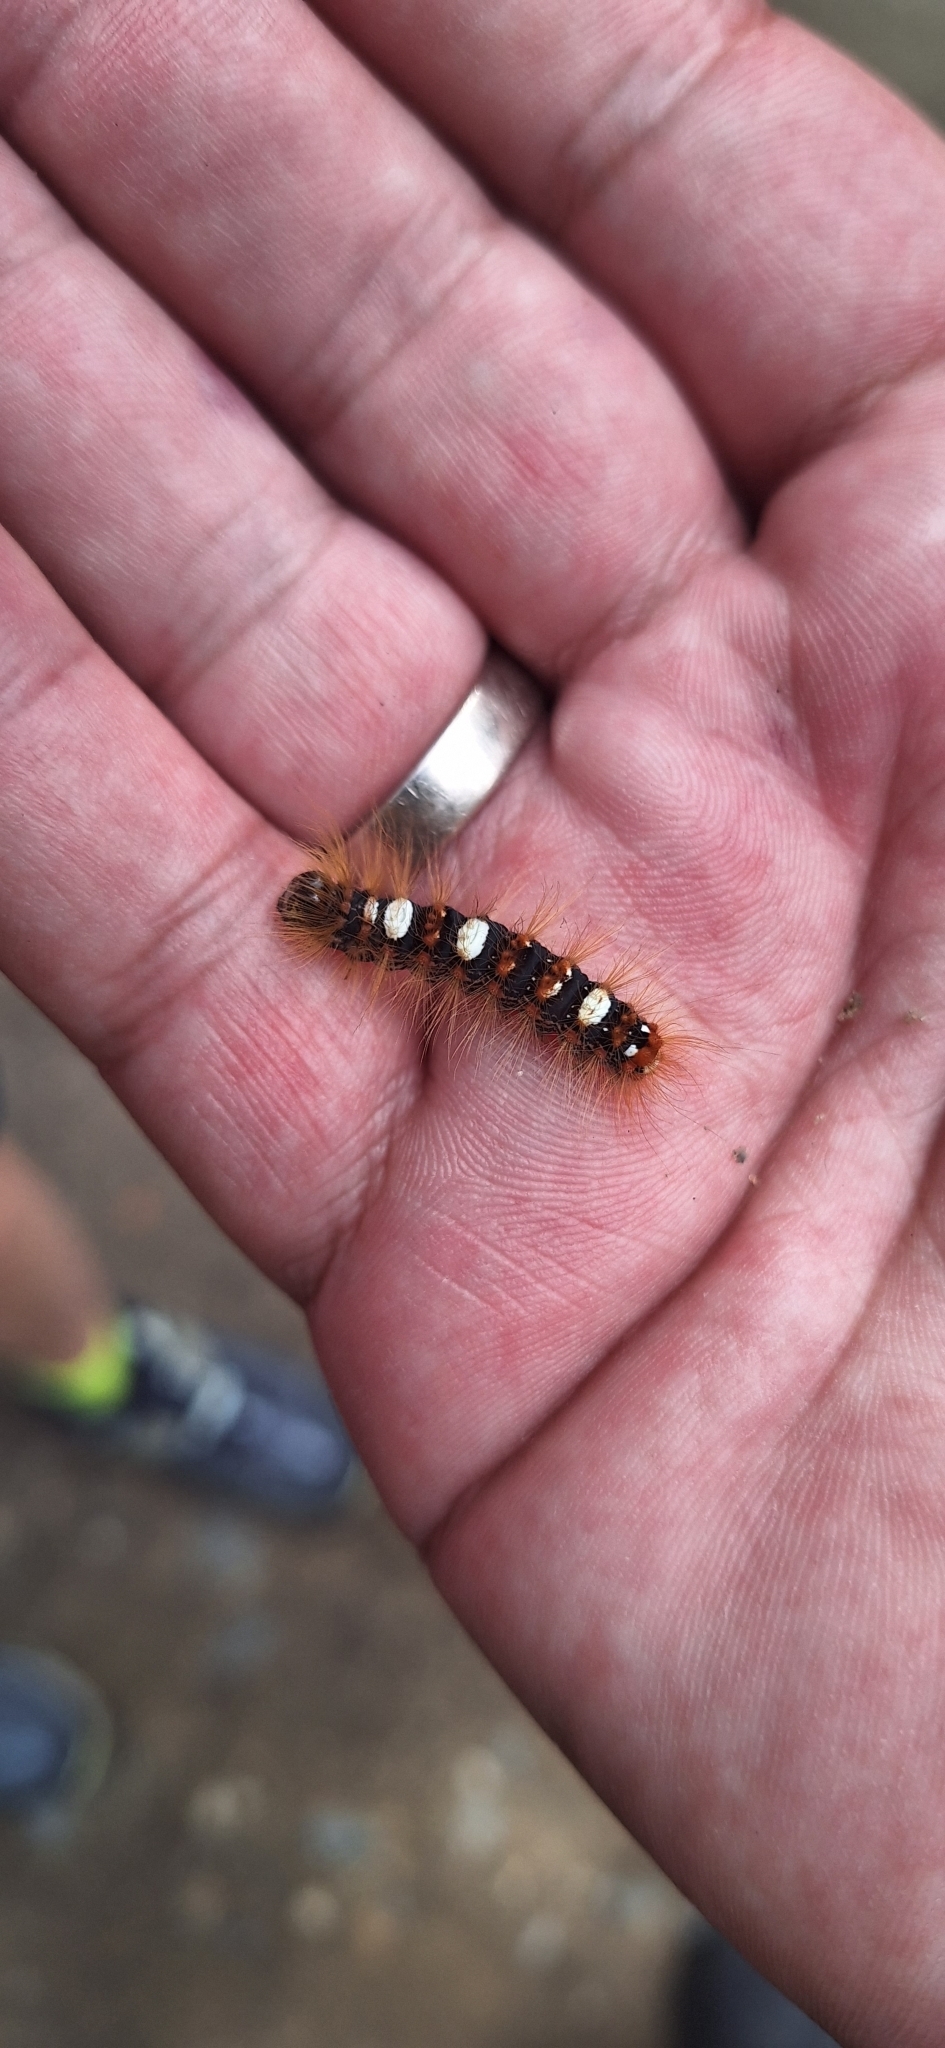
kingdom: Animalia
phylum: Arthropoda
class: Insecta
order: Lepidoptera
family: Noctuidae
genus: Moma
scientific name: Moma alpium
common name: Scarce merveille du jour
